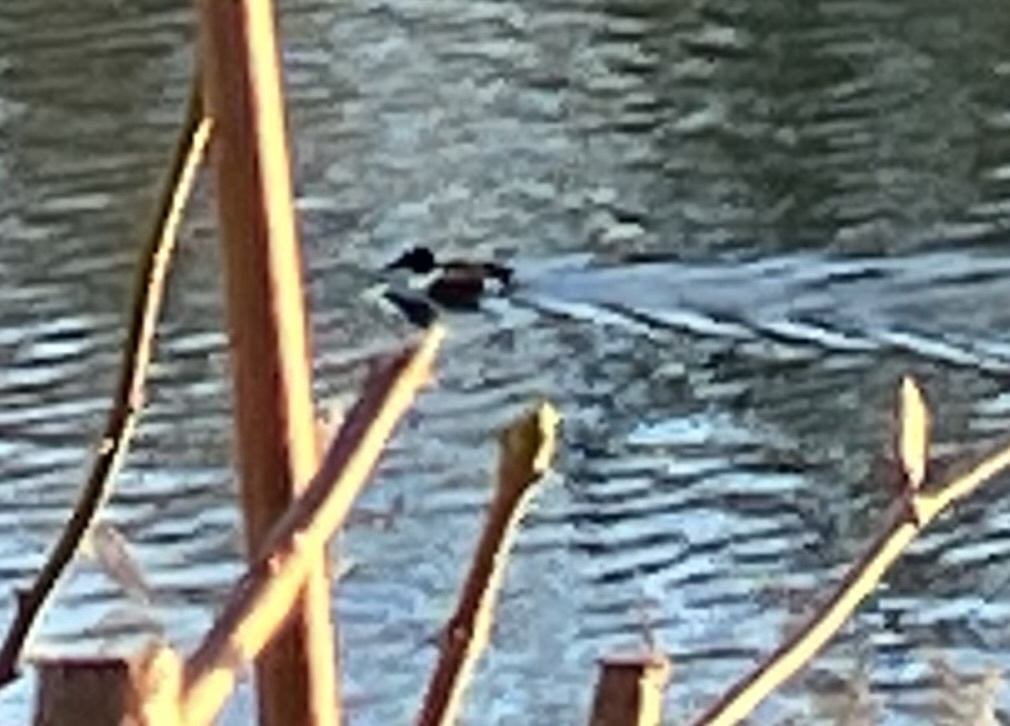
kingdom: Animalia
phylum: Chordata
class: Aves
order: Anseriformes
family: Anatidae
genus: Spatula
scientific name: Spatula clypeata
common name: Northern shoveler
